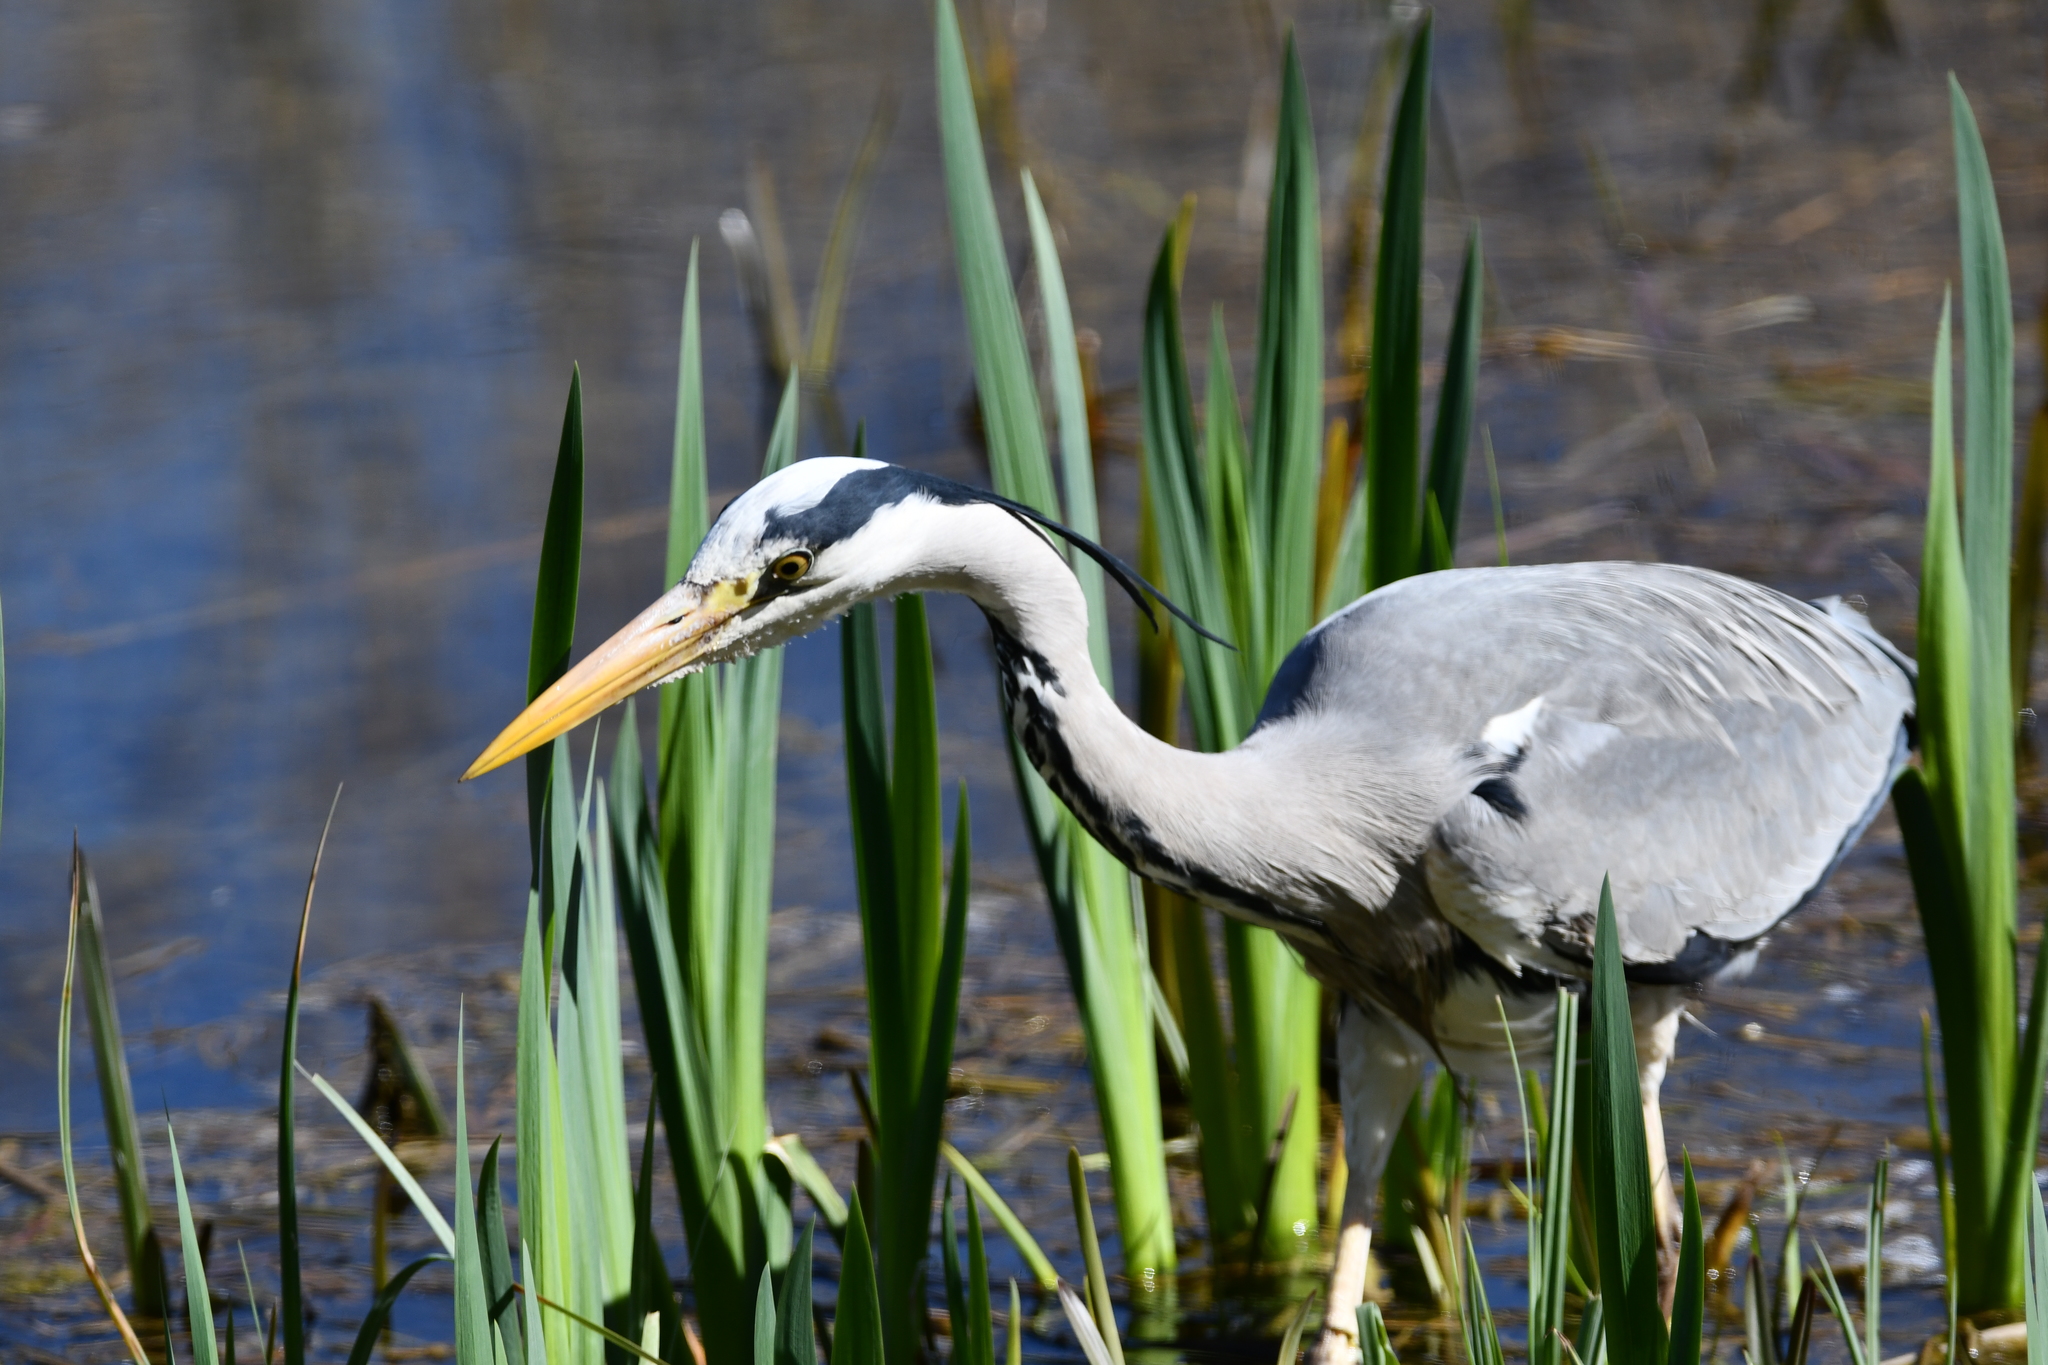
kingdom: Animalia
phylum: Chordata
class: Aves
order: Pelecaniformes
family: Ardeidae
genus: Ardea
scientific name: Ardea cinerea
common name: Grey heron
